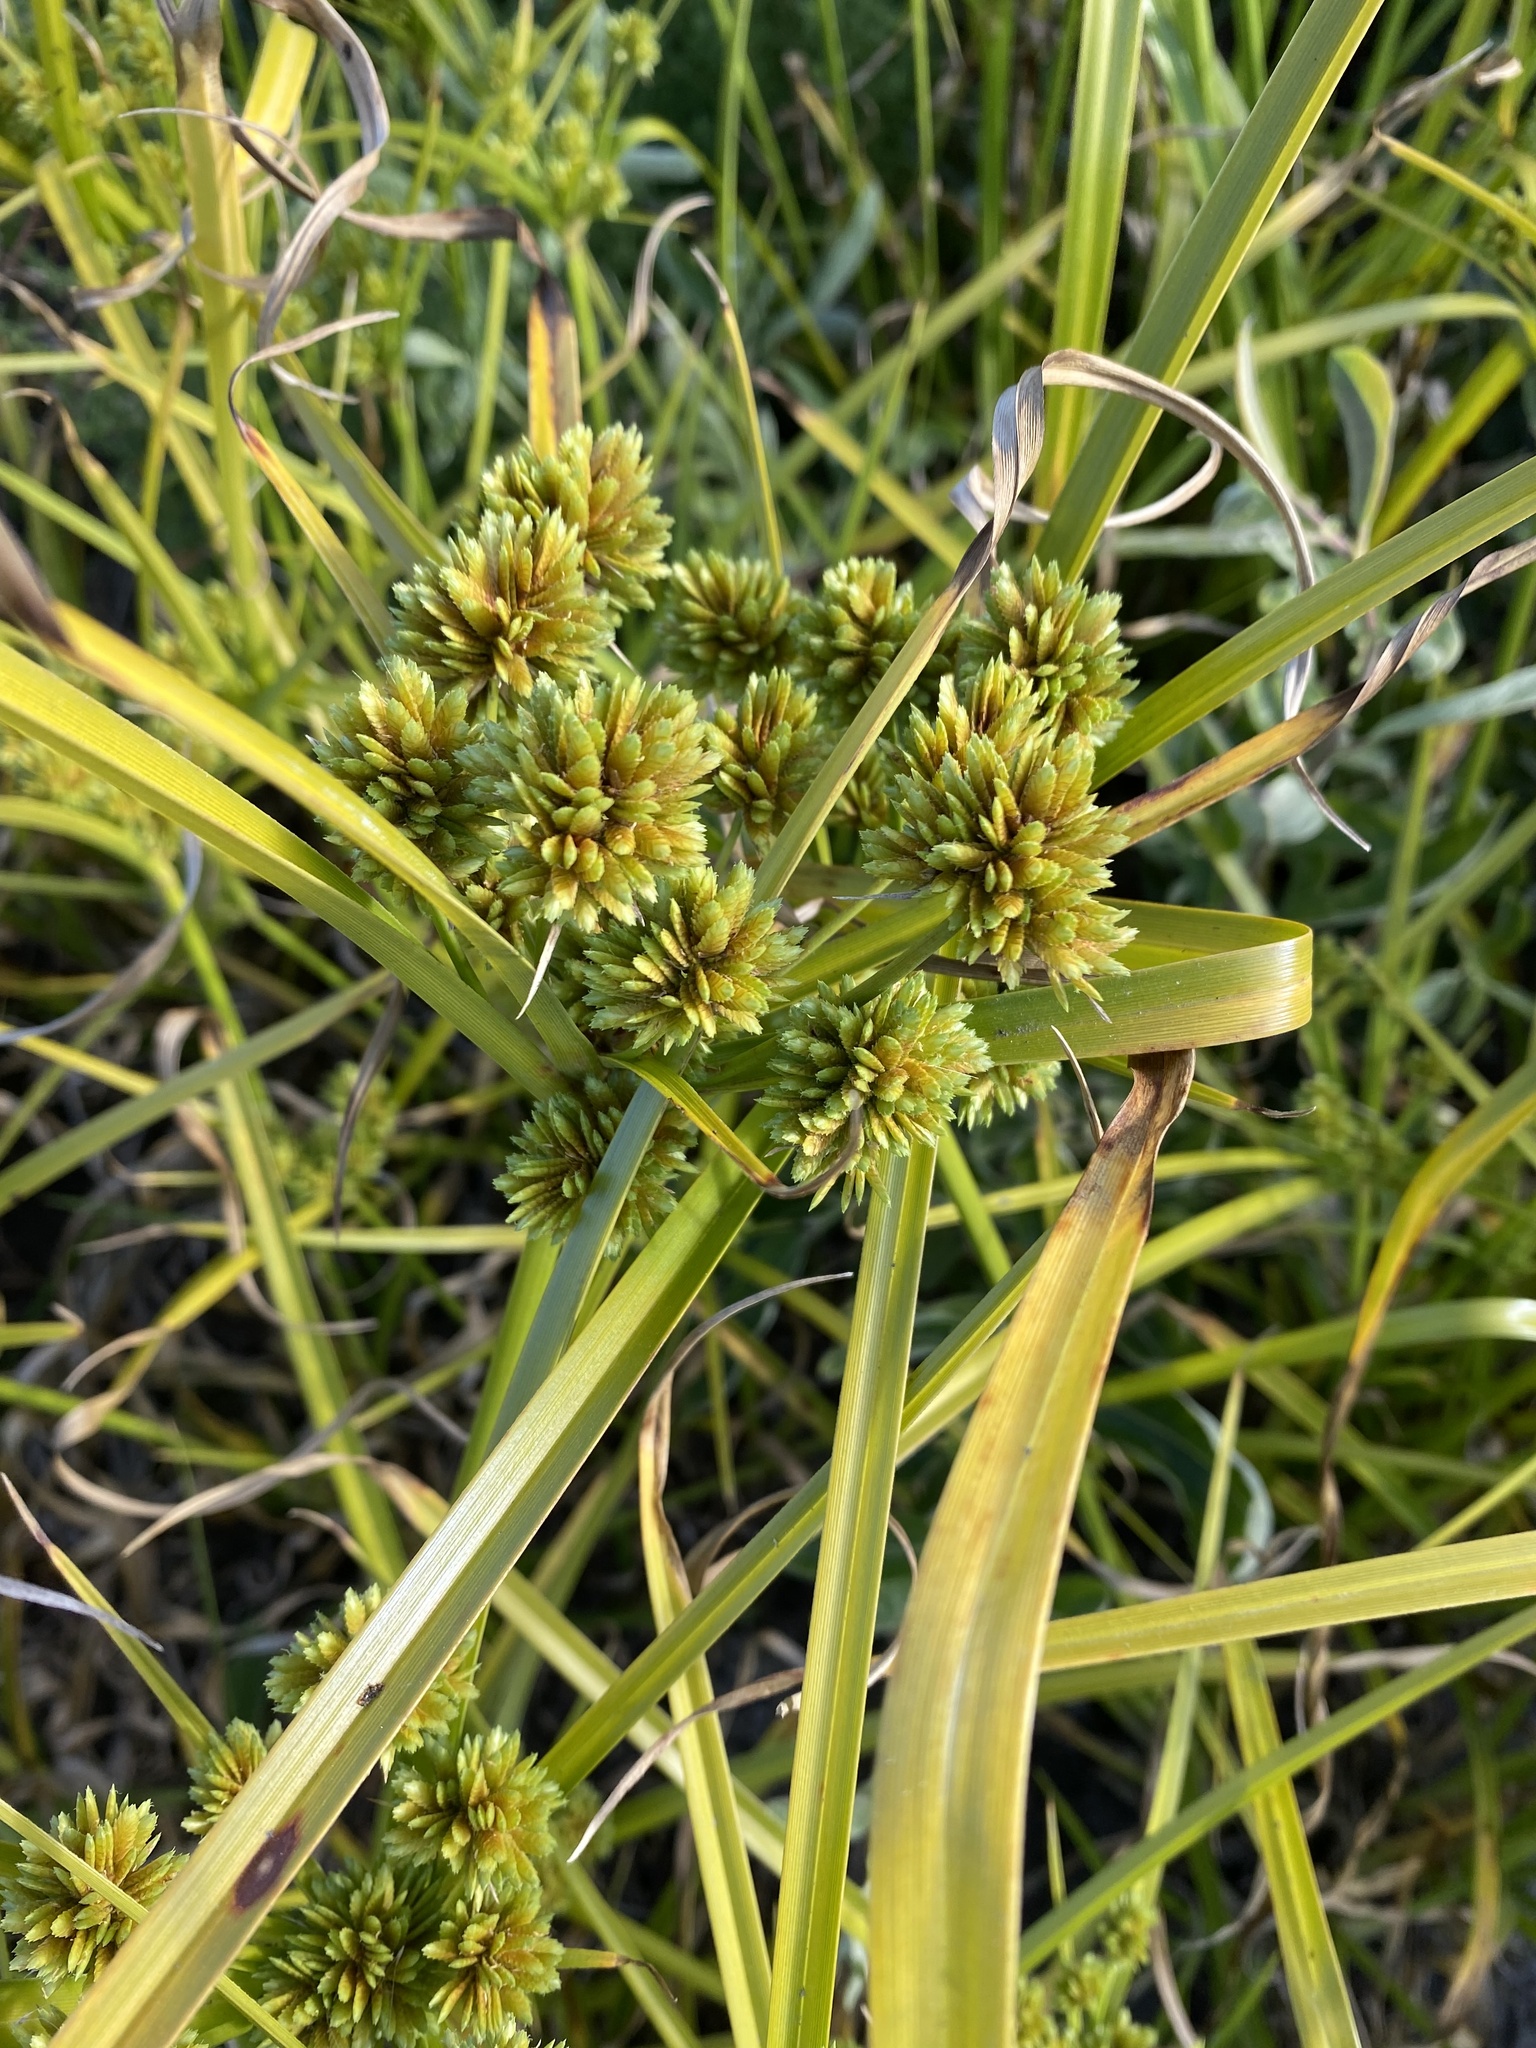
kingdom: Plantae
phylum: Tracheophyta
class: Liliopsida
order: Poales
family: Cyperaceae
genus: Cyperus
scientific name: Cyperus eragrostis
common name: Tall flatsedge
